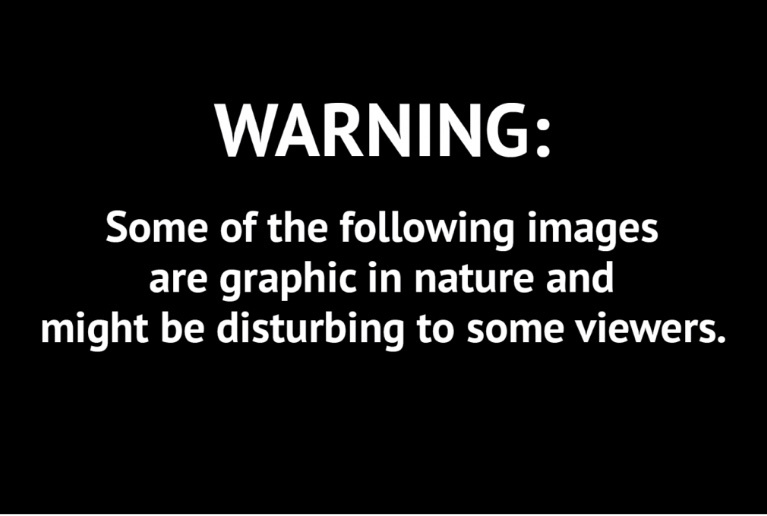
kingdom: Animalia
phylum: Chordata
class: Mammalia
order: Cingulata
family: Dasypodidae
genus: Dasypus
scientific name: Dasypus novemcinctus
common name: Nine-banded armadillo
